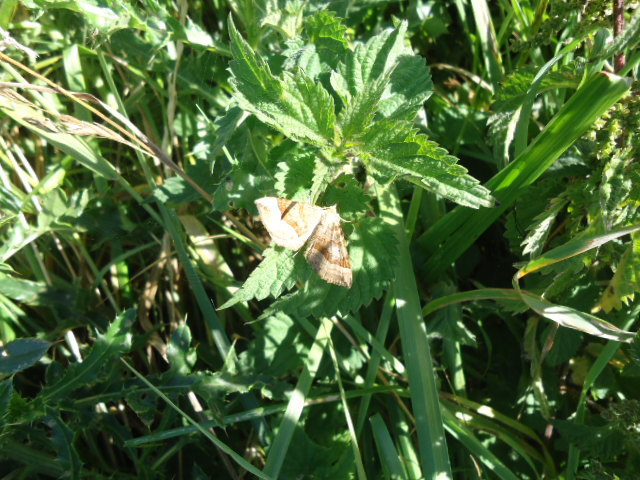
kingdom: Animalia
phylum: Arthropoda
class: Insecta
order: Lepidoptera
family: Geometridae
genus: Scotopteryx
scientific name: Scotopteryx chenopodiata
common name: Shaded broad-bar
